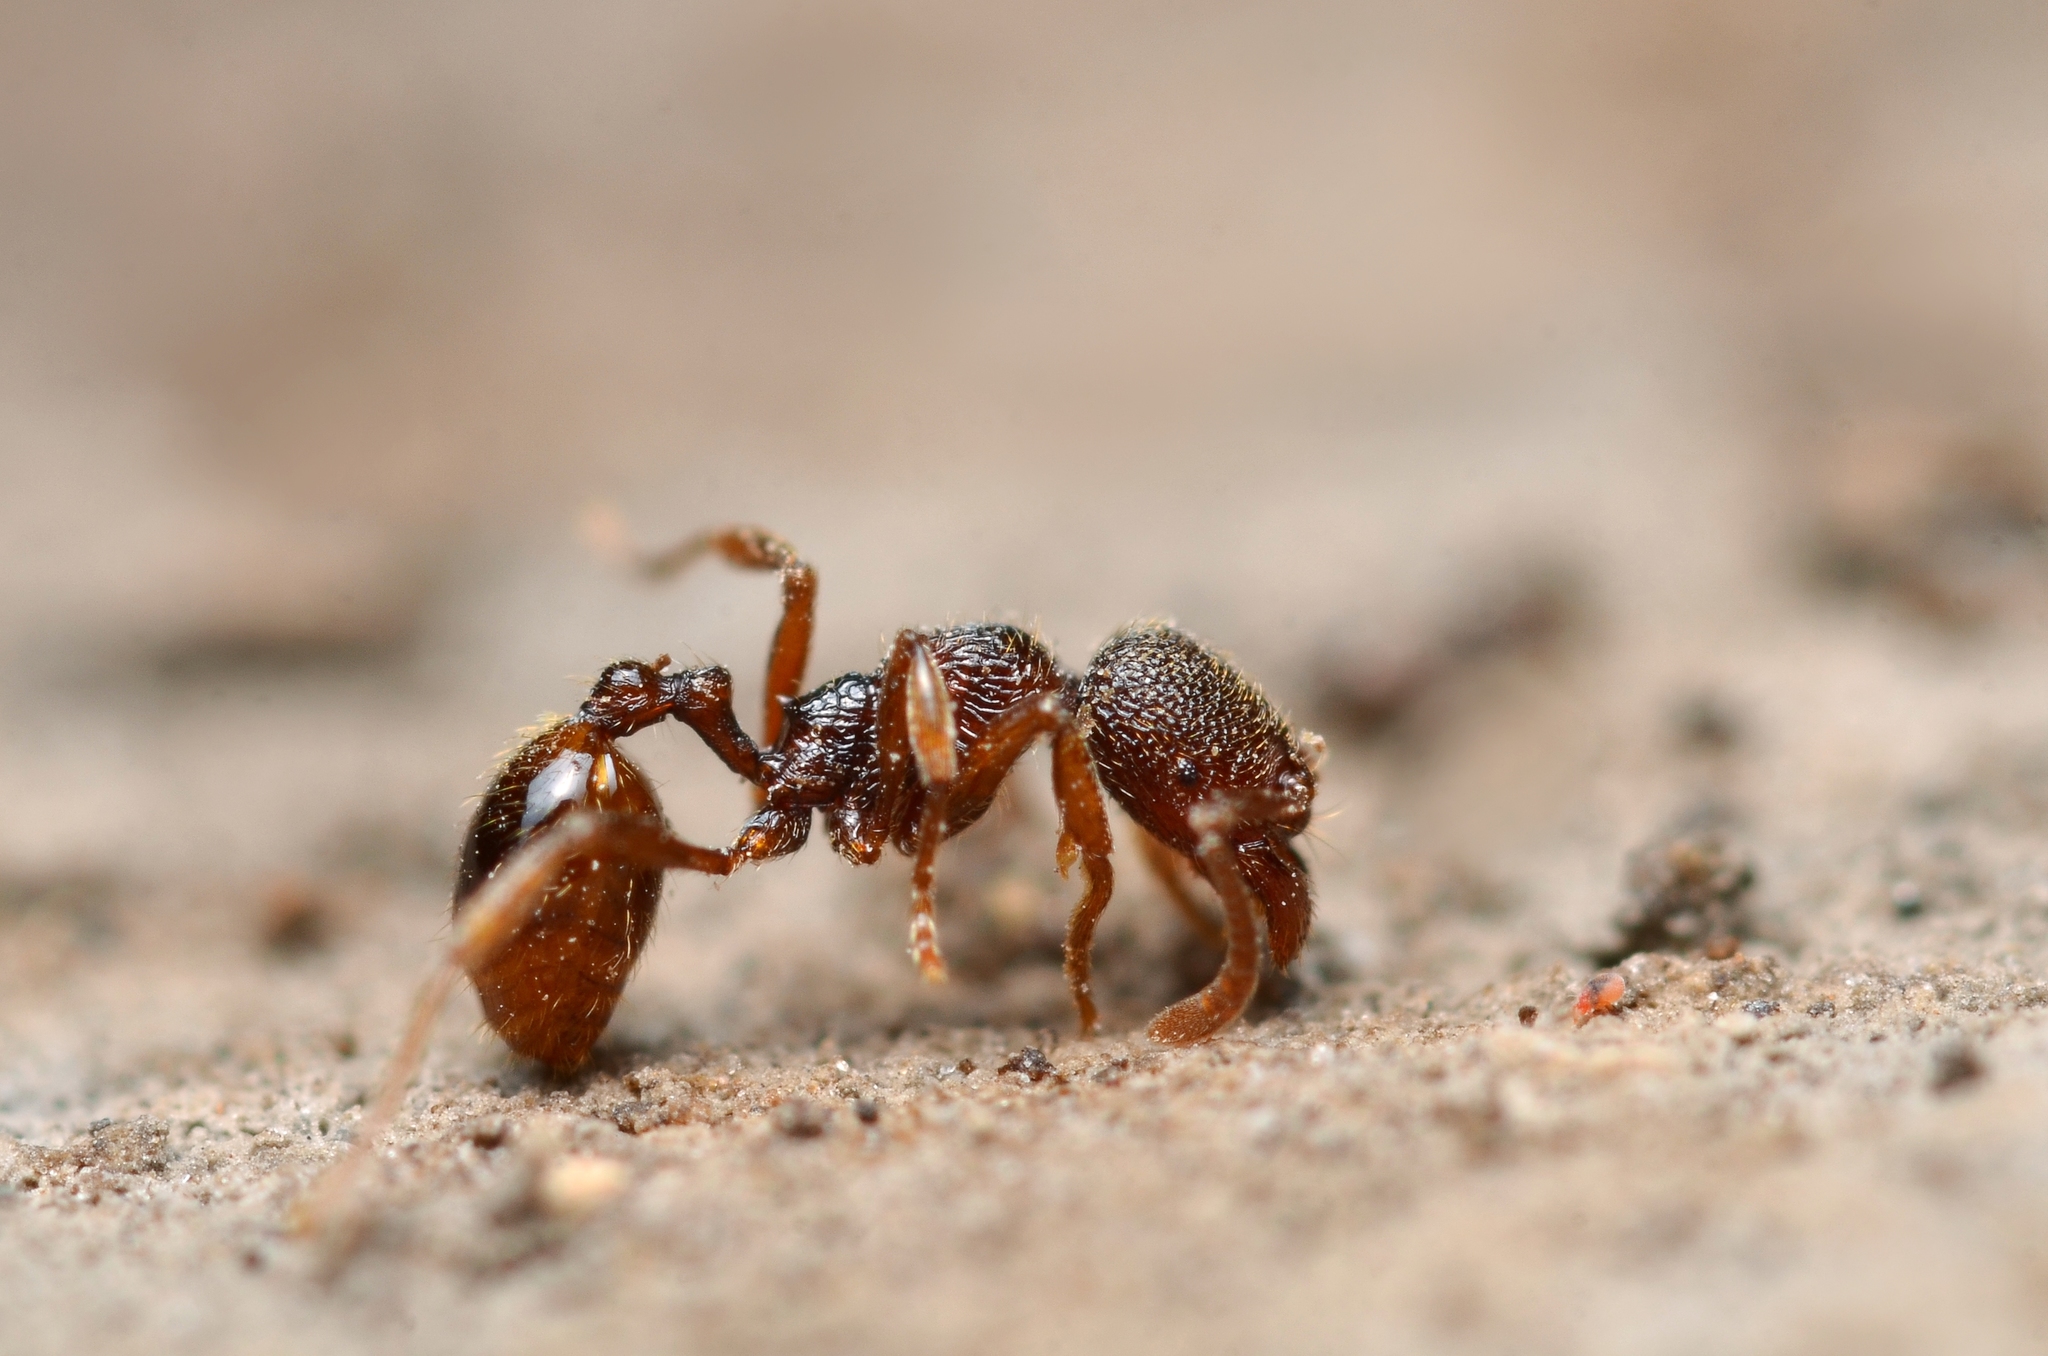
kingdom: Animalia
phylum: Arthropoda
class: Insecta
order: Hymenoptera
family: Formicidae
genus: Stenamma
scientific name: Stenamma debile
